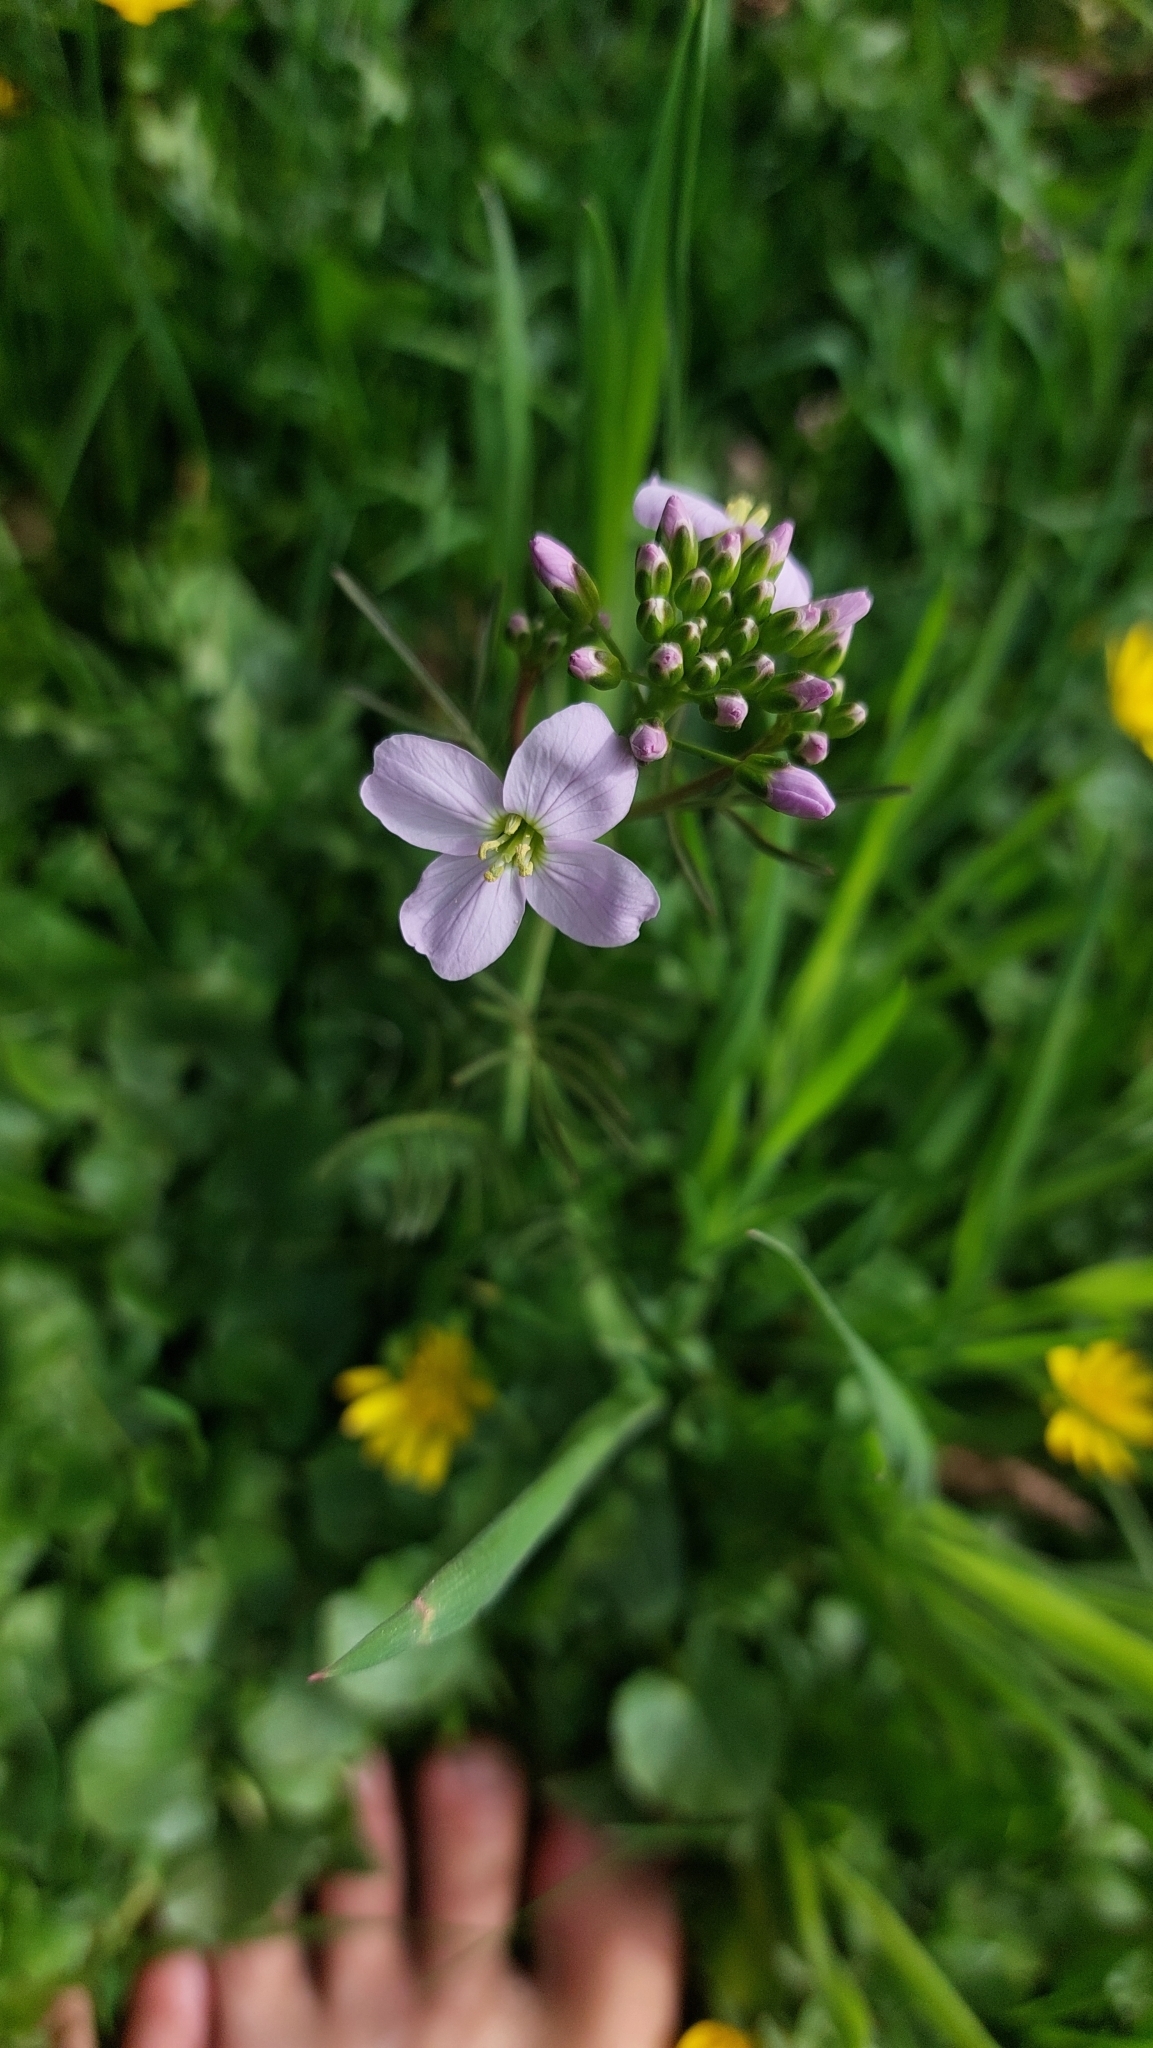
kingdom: Plantae
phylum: Tracheophyta
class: Magnoliopsida
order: Brassicales
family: Brassicaceae
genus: Cardamine
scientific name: Cardamine pratensis
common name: Cuckoo flower
